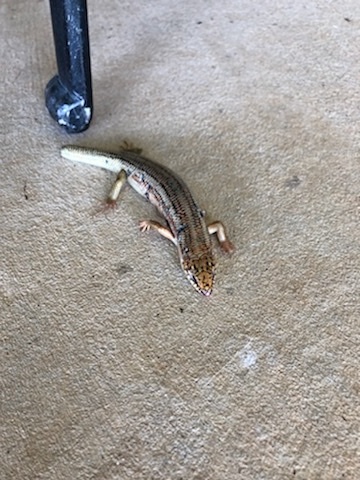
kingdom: Animalia
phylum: Chordata
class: Squamata
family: Scincidae
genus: Plestiodon
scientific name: Plestiodon obsoletus
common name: Great plains skink
